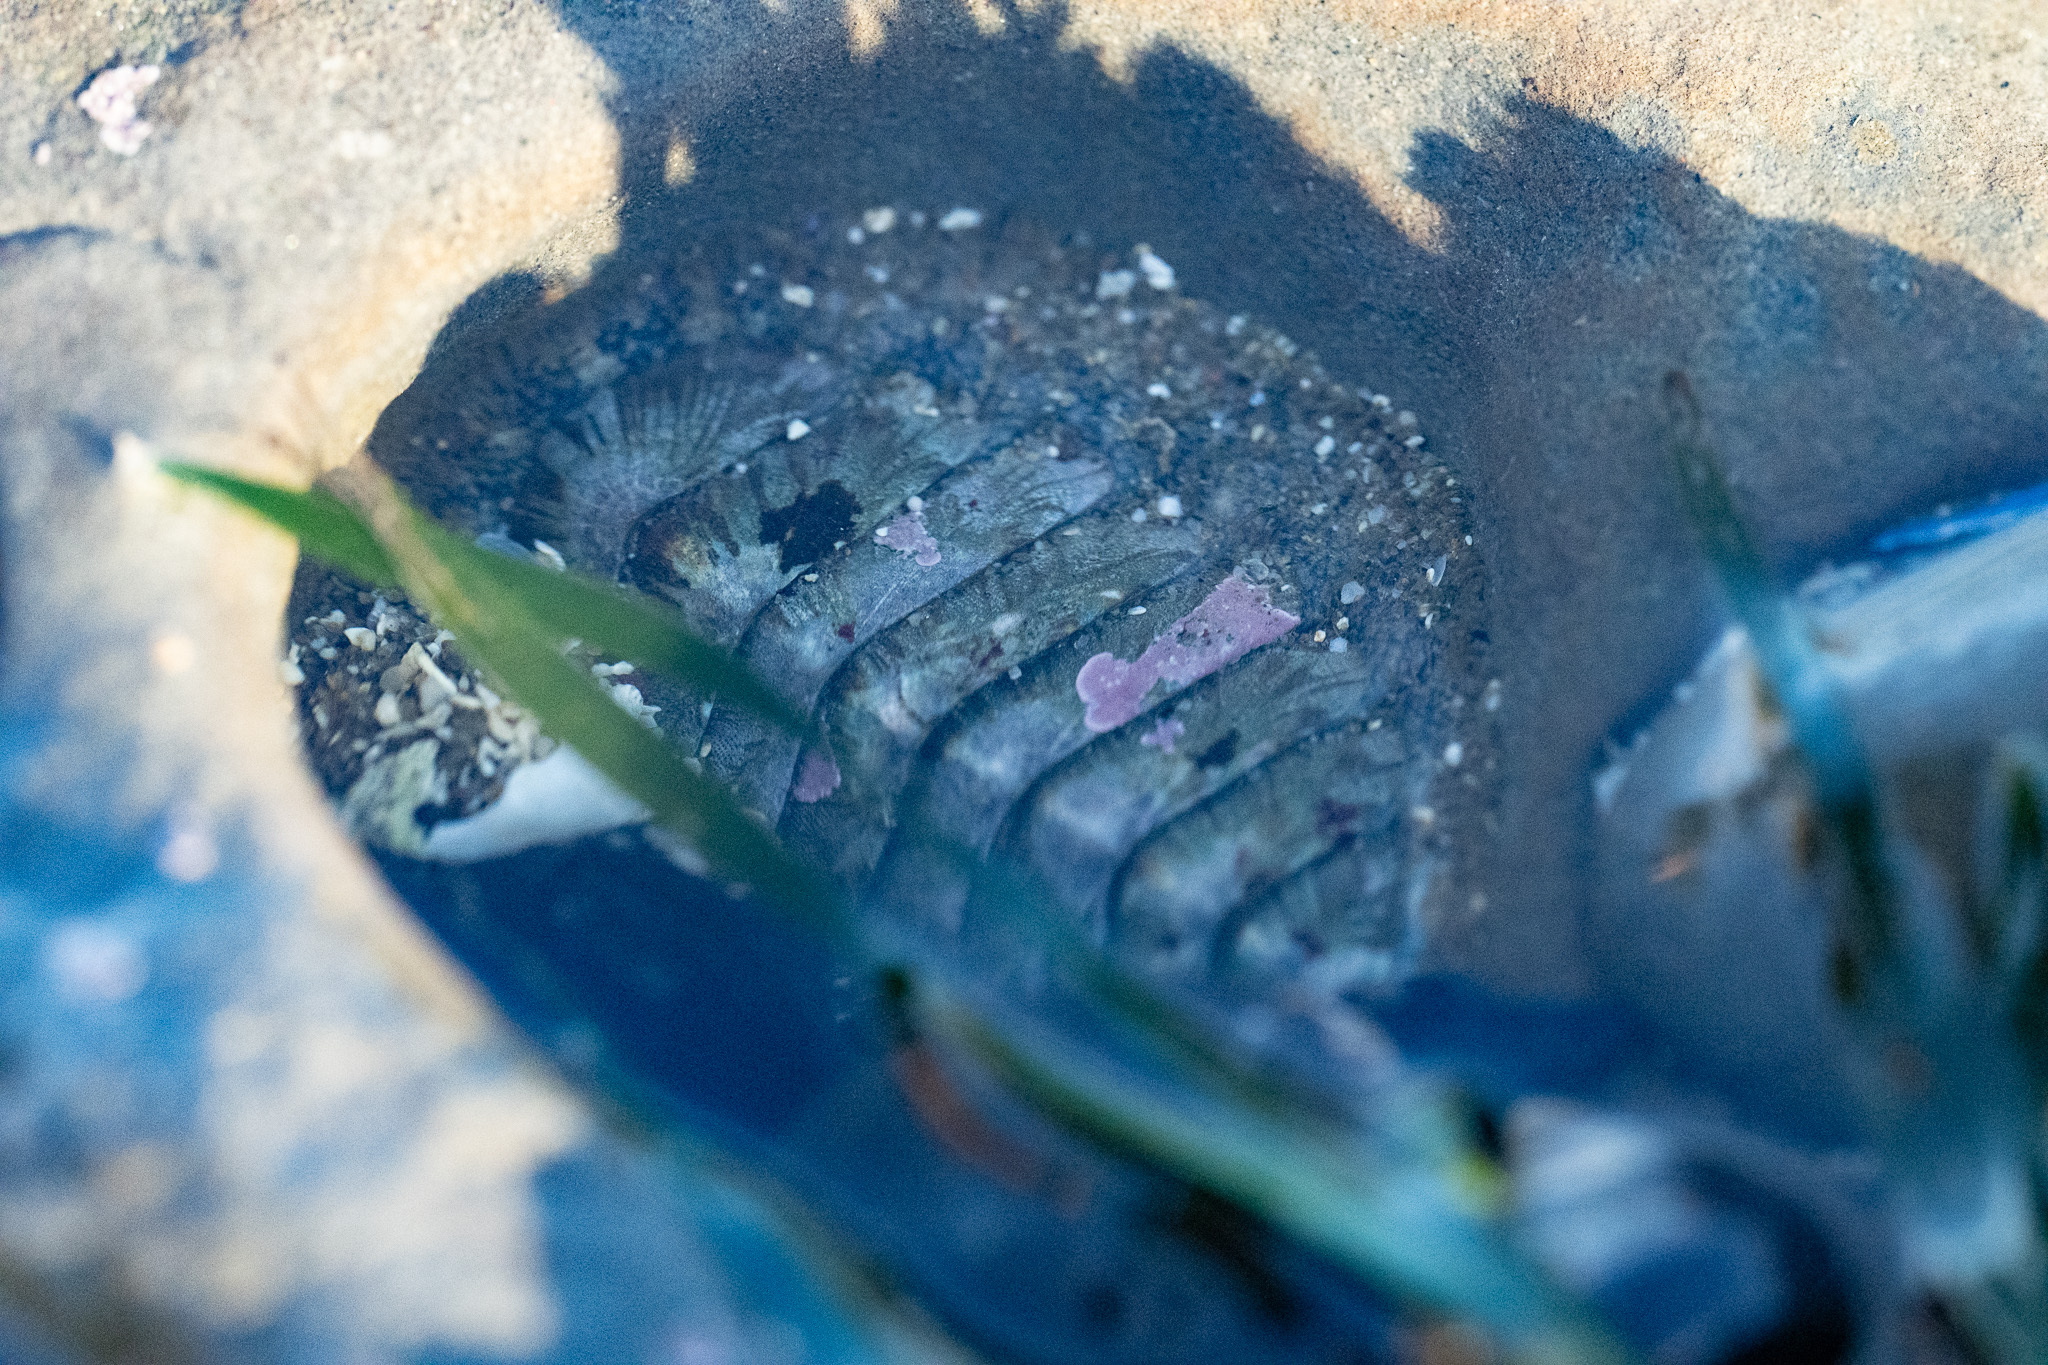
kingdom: Animalia
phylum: Mollusca
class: Polyplacophora
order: Chitonida
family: Mopaliidae
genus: Mopalia
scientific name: Mopalia lignosa
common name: Woody chiton
